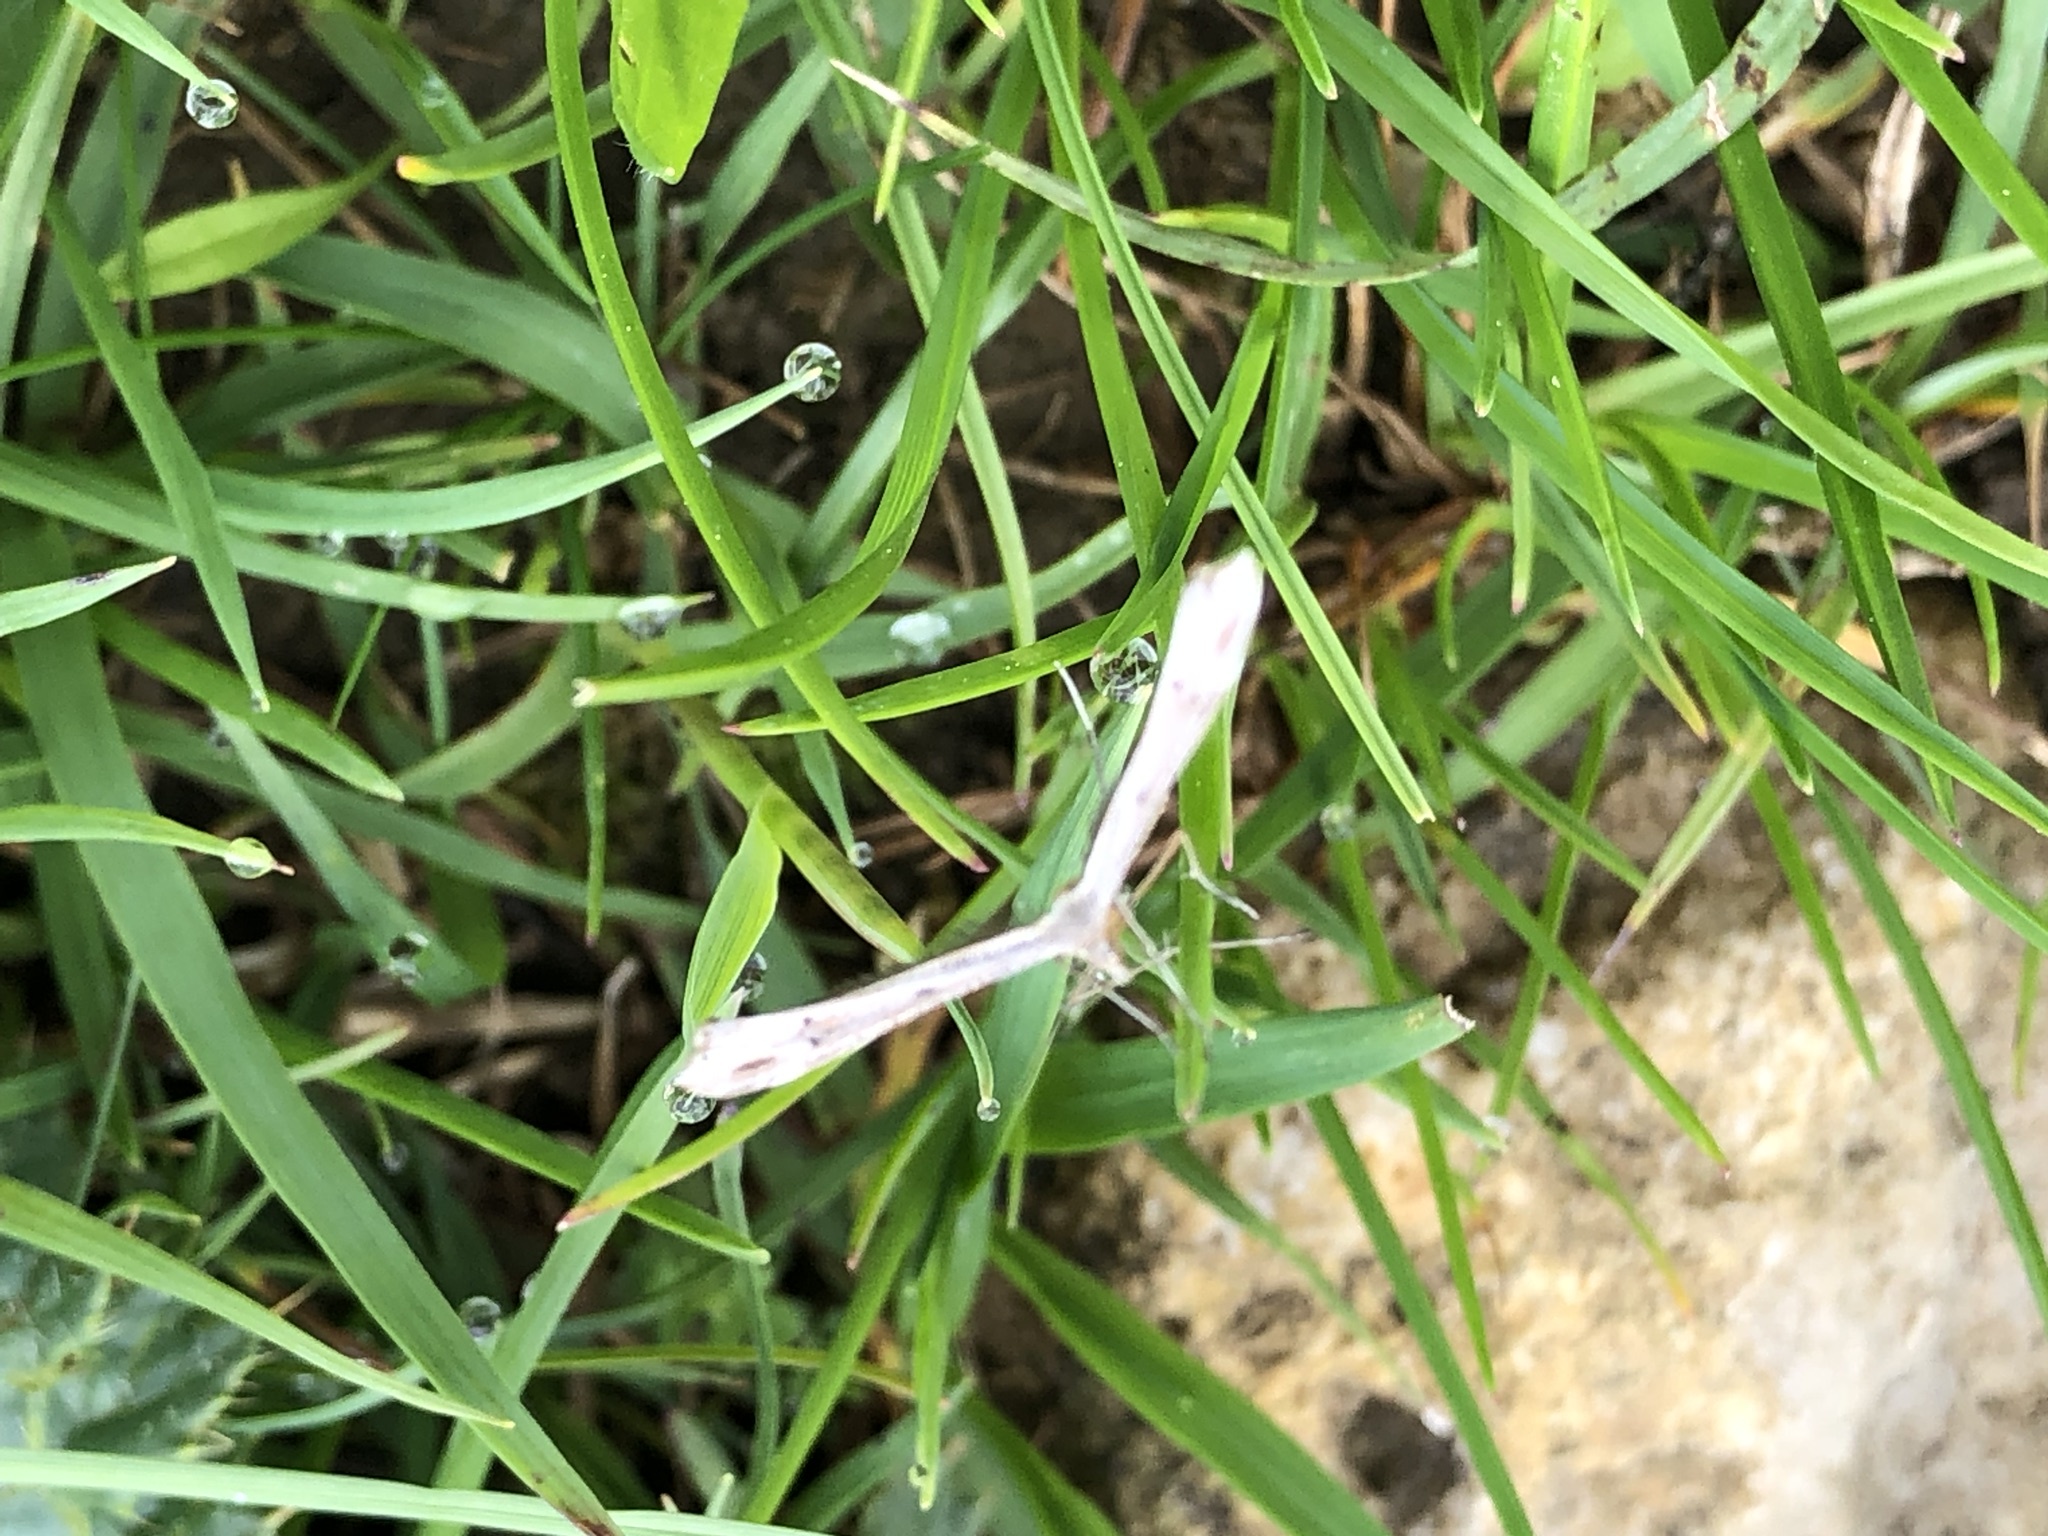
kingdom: Animalia
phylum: Arthropoda
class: Insecta
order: Lepidoptera
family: Pterophoridae
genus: Emmelina
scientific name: Emmelina monodactyla
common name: Common plume
